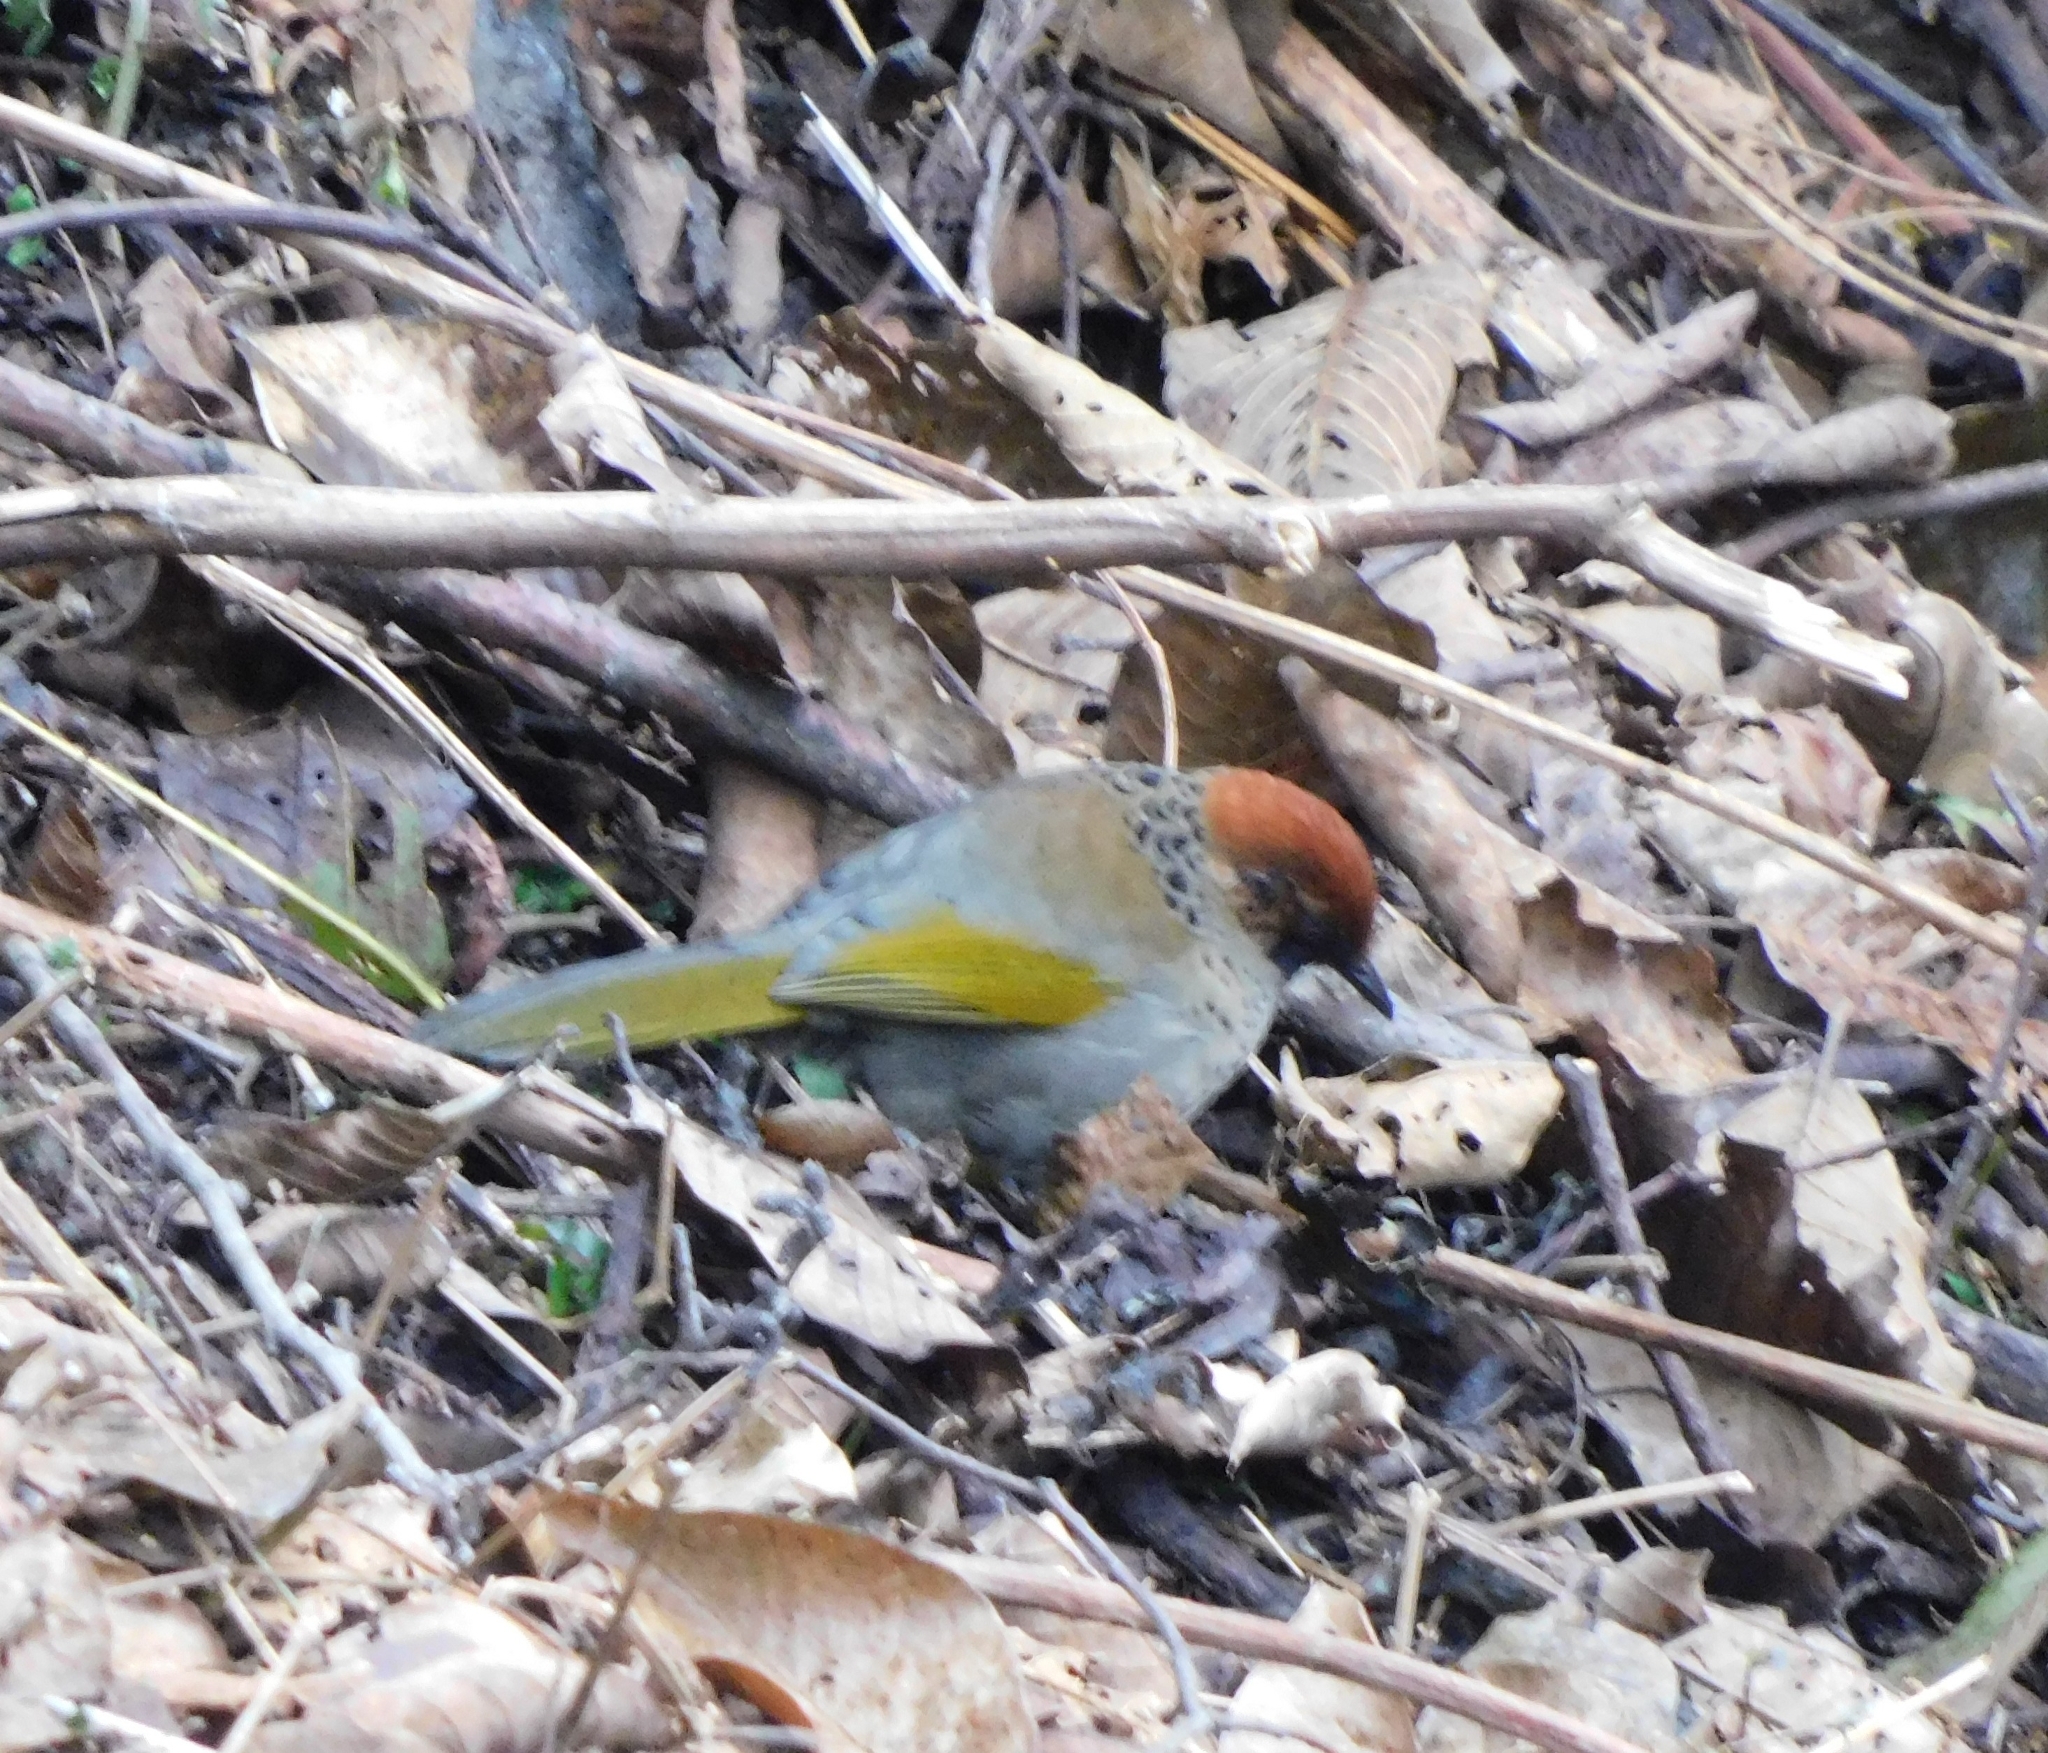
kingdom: Animalia
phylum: Chordata
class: Aves
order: Passeriformes
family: Leiothrichidae
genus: Trochalopteron
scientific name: Trochalopteron erythrocephalum
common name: Chestnut-crowned laughingthrush
